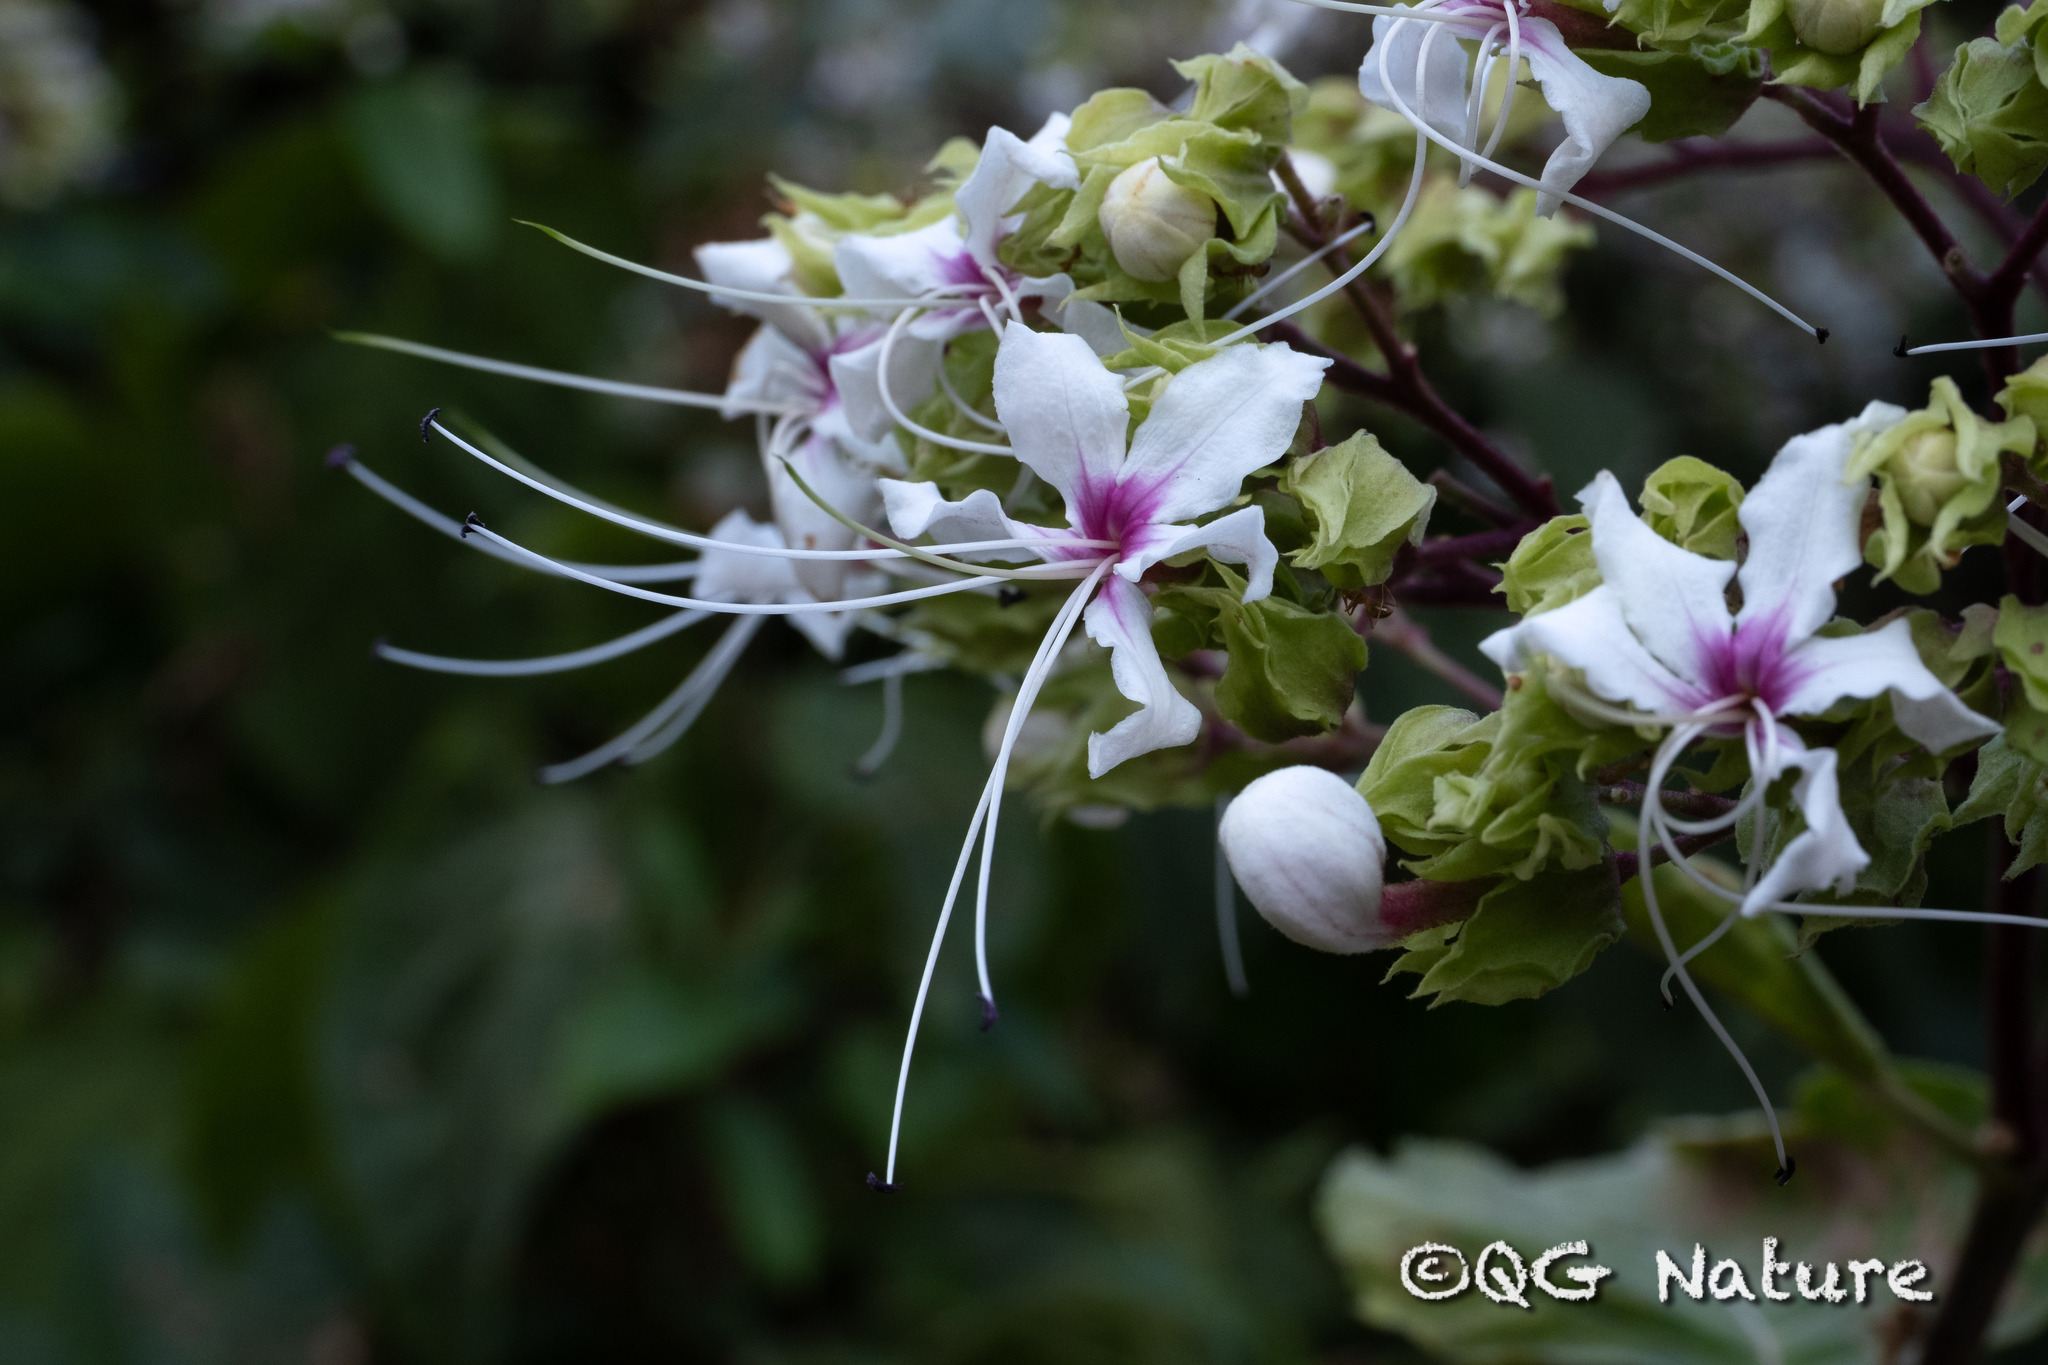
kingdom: Plantae
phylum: Tracheophyta
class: Magnoliopsida
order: Lamiales
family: Lamiaceae
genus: Clerodendrum
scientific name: Clerodendrum infortunatum
